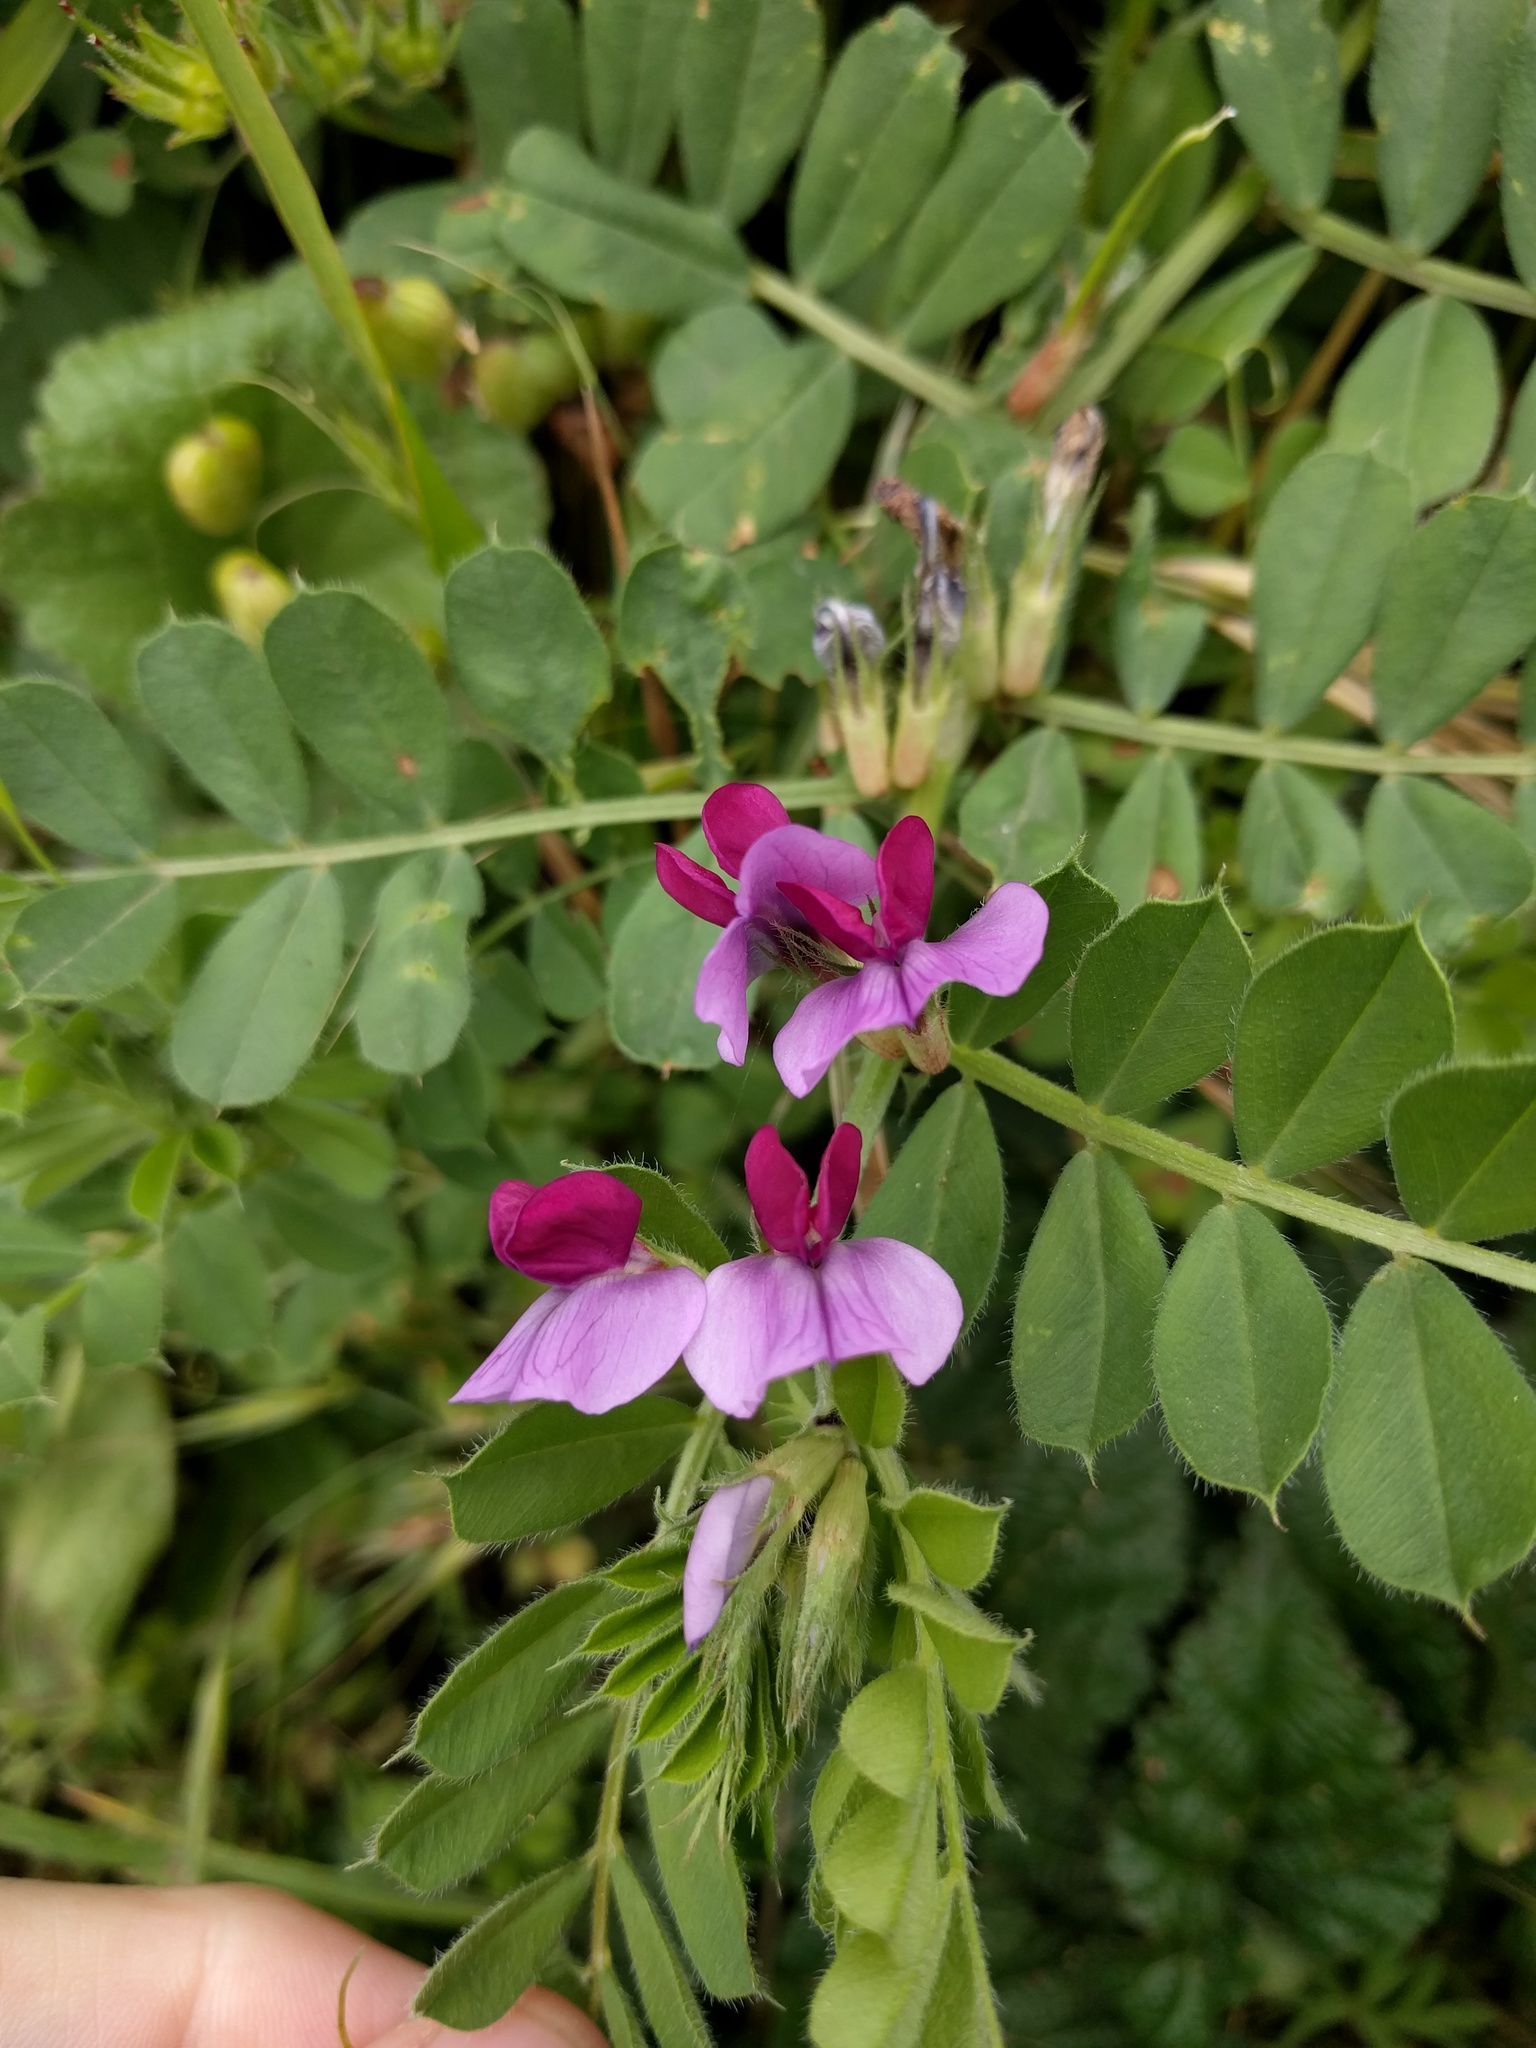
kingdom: Plantae
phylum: Tracheophyta
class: Magnoliopsida
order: Fabales
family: Fabaceae
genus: Vicia
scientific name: Vicia sativa
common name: Garden vetch
